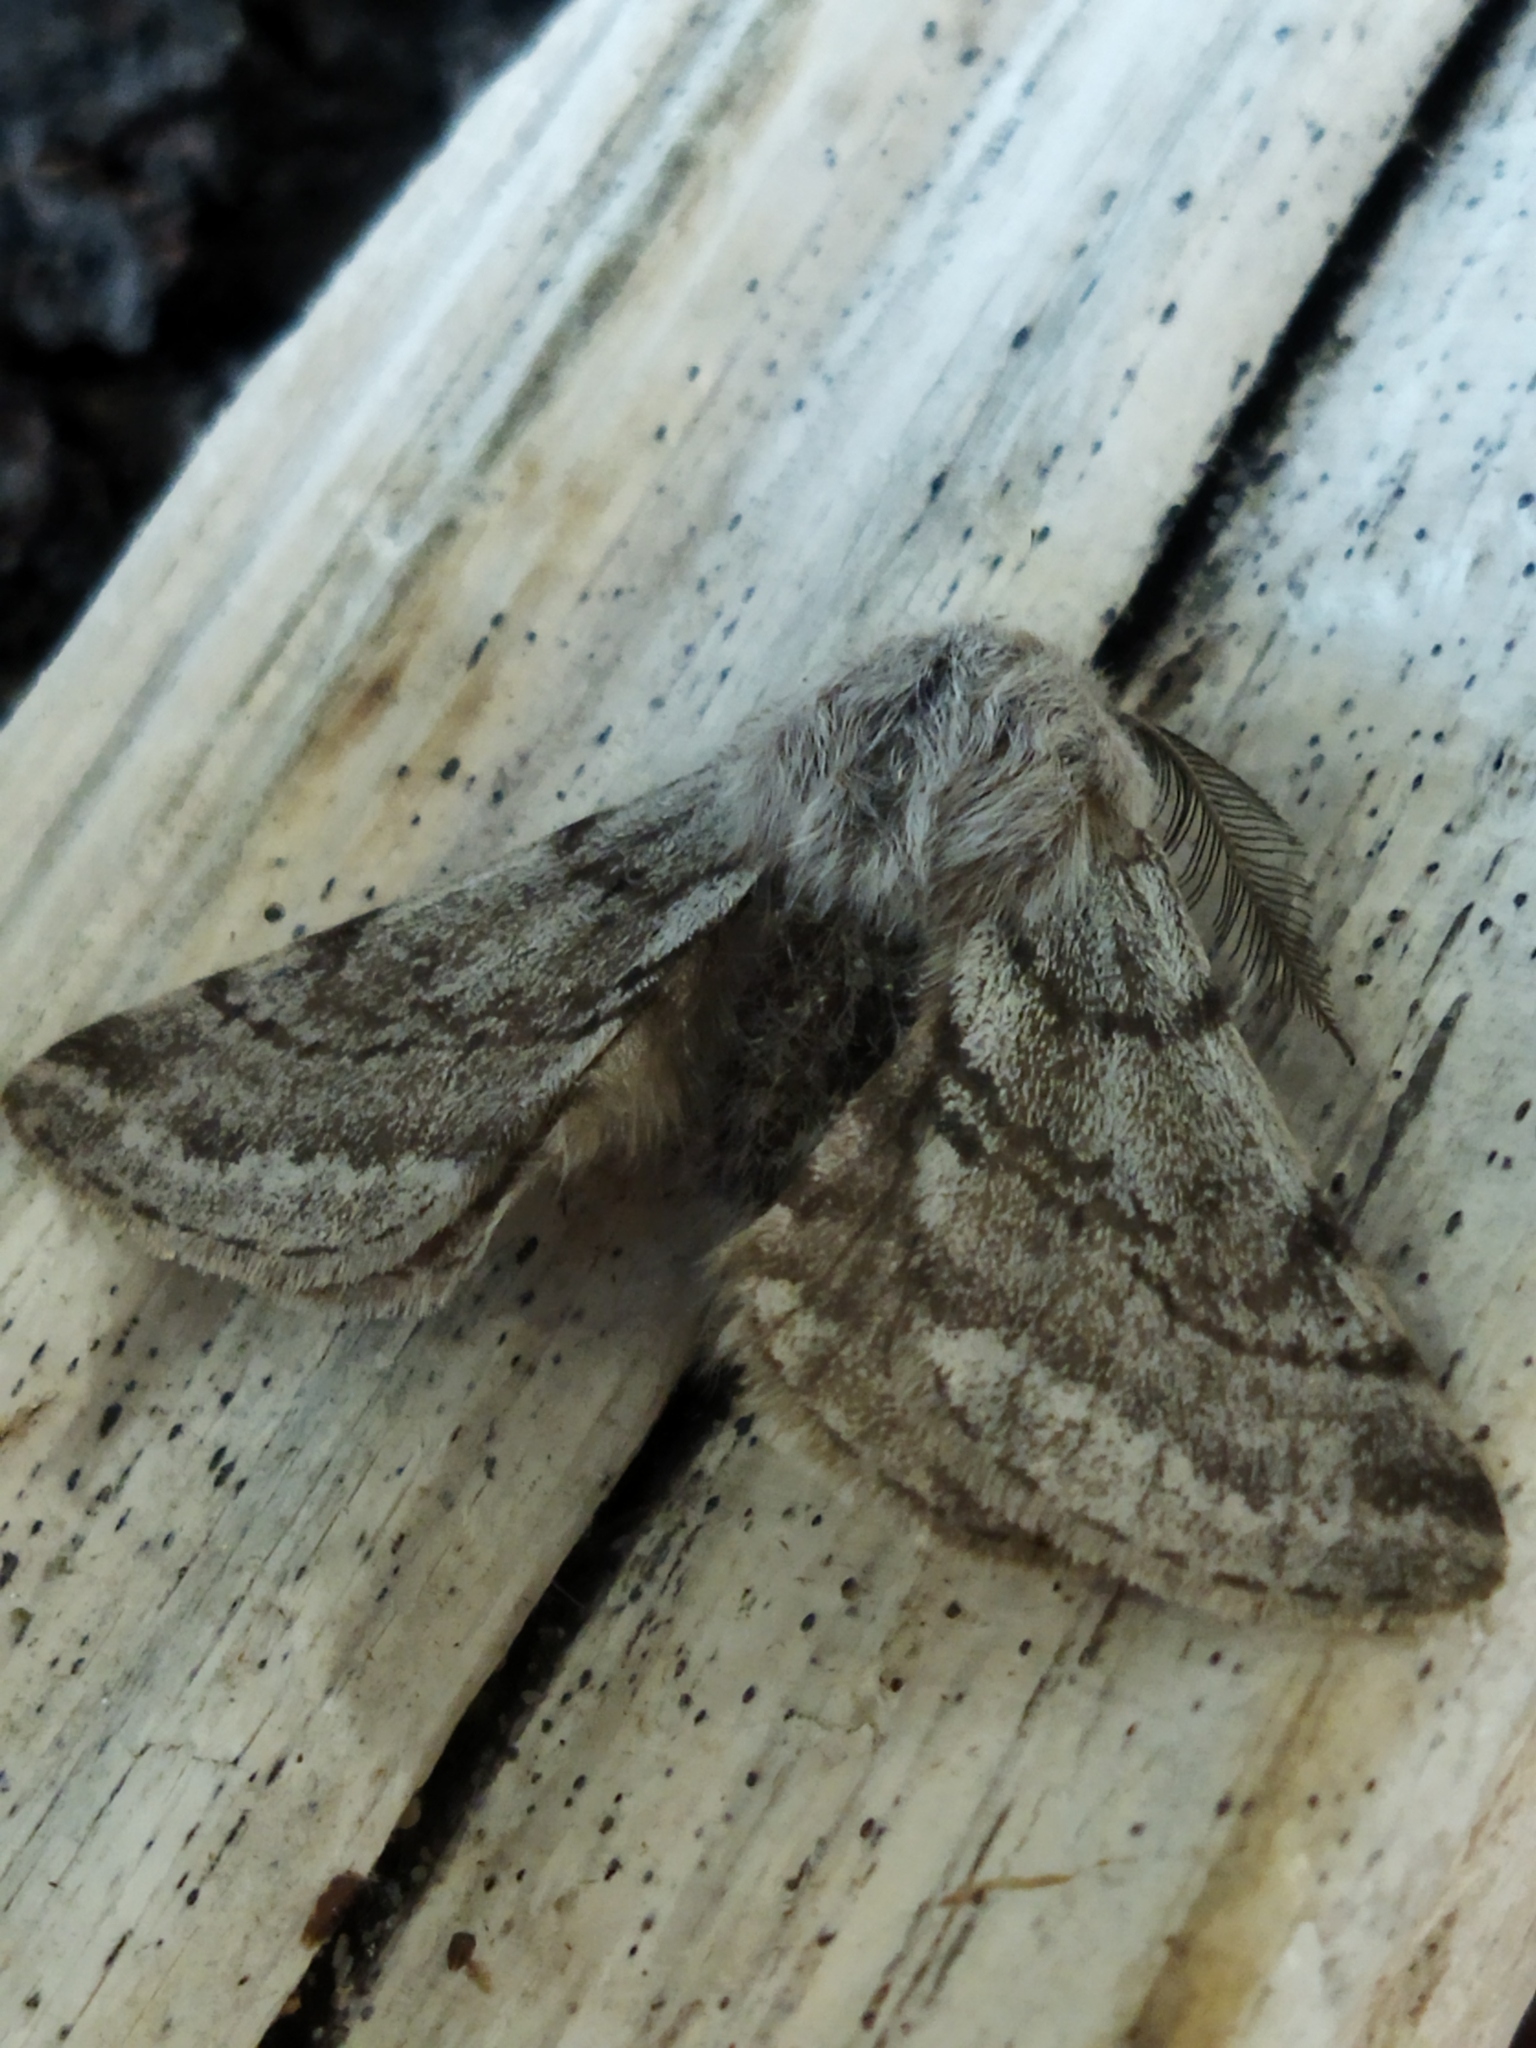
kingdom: Animalia
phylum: Arthropoda
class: Insecta
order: Lepidoptera
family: Geometridae
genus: Lycia
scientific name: Lycia graecarius
